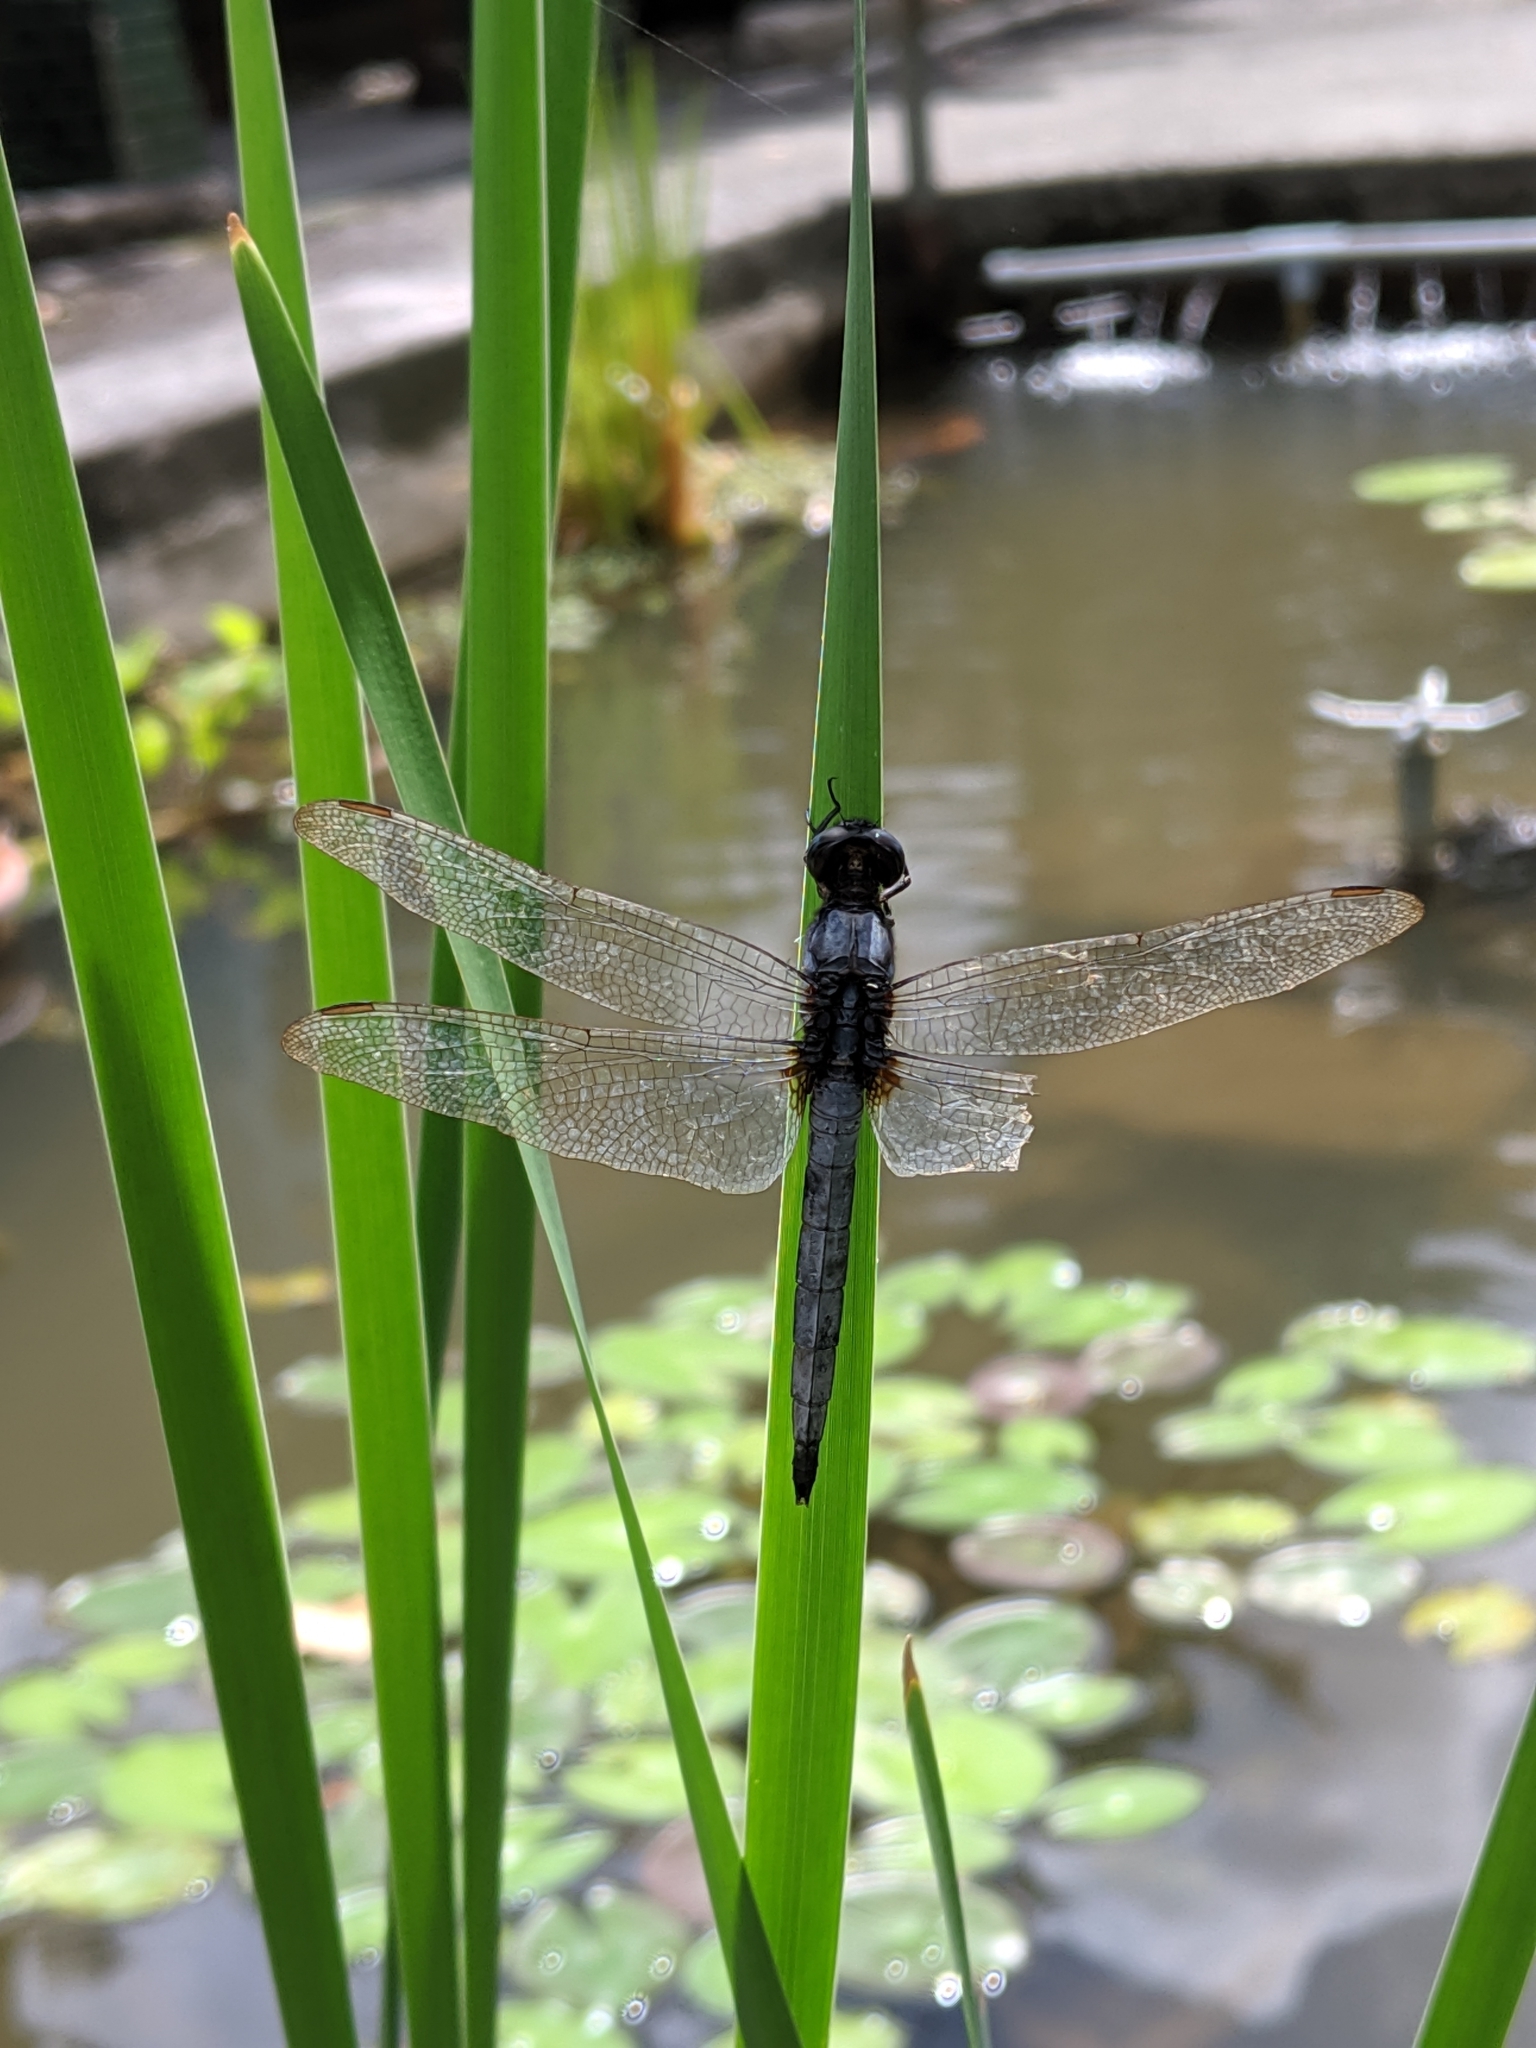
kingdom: Animalia
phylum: Arthropoda
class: Insecta
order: Odonata
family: Libellulidae
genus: Orthetrum
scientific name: Orthetrum glaucum
